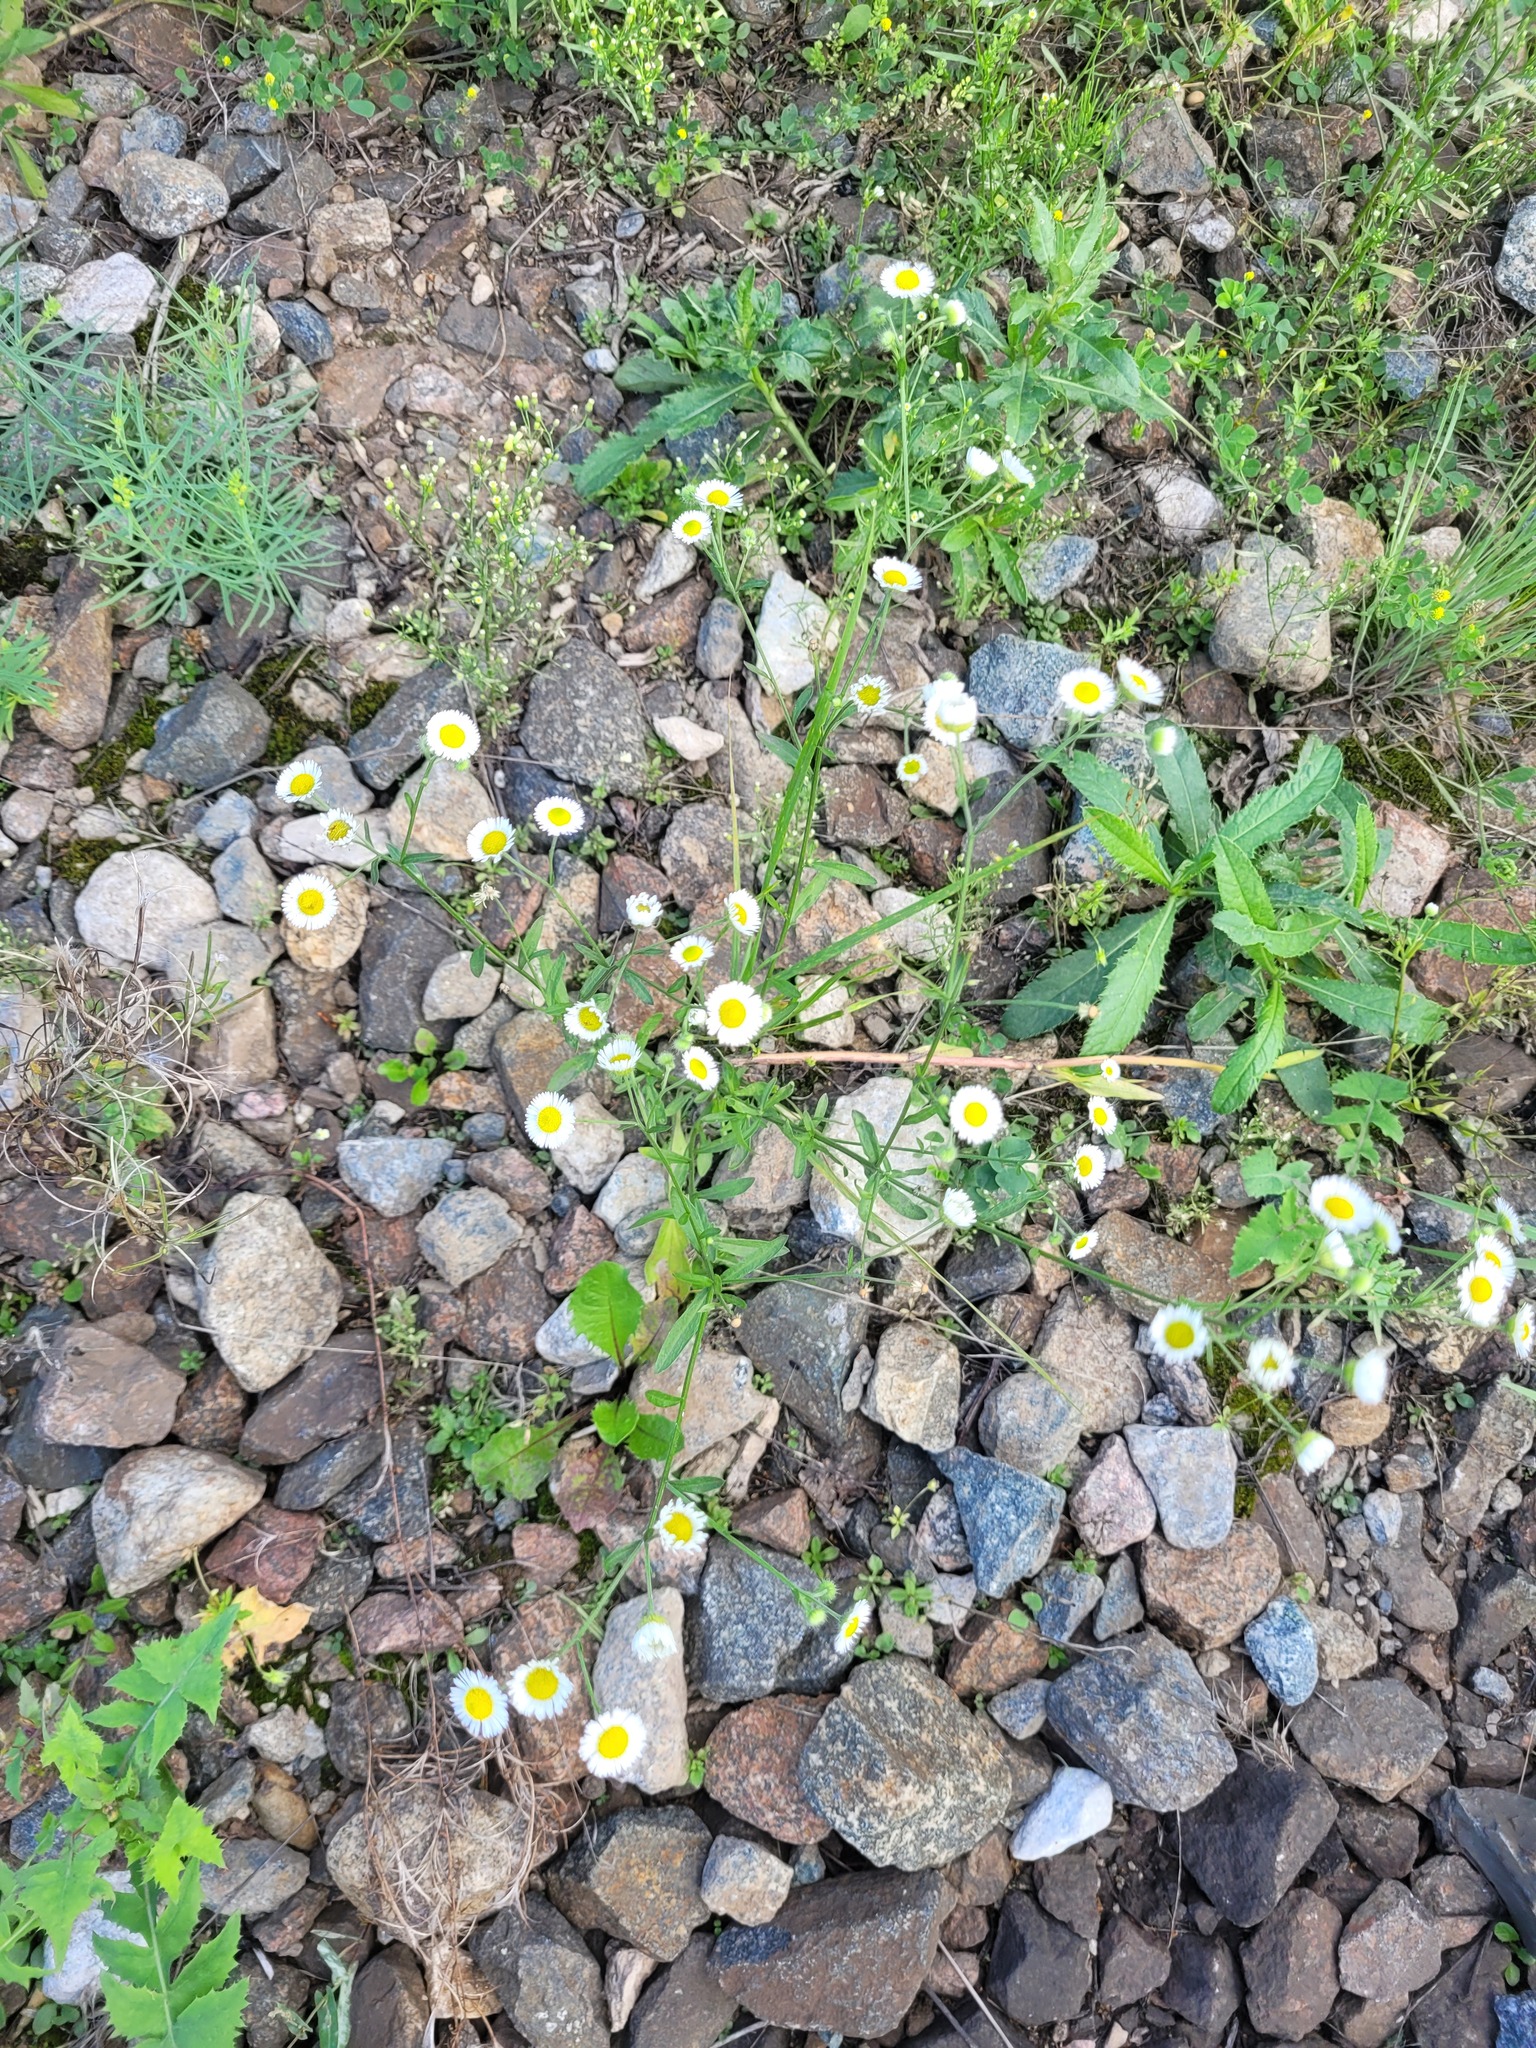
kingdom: Plantae
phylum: Tracheophyta
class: Magnoliopsida
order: Asterales
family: Asteraceae
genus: Erigeron
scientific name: Erigeron annuus
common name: Tall fleabane
